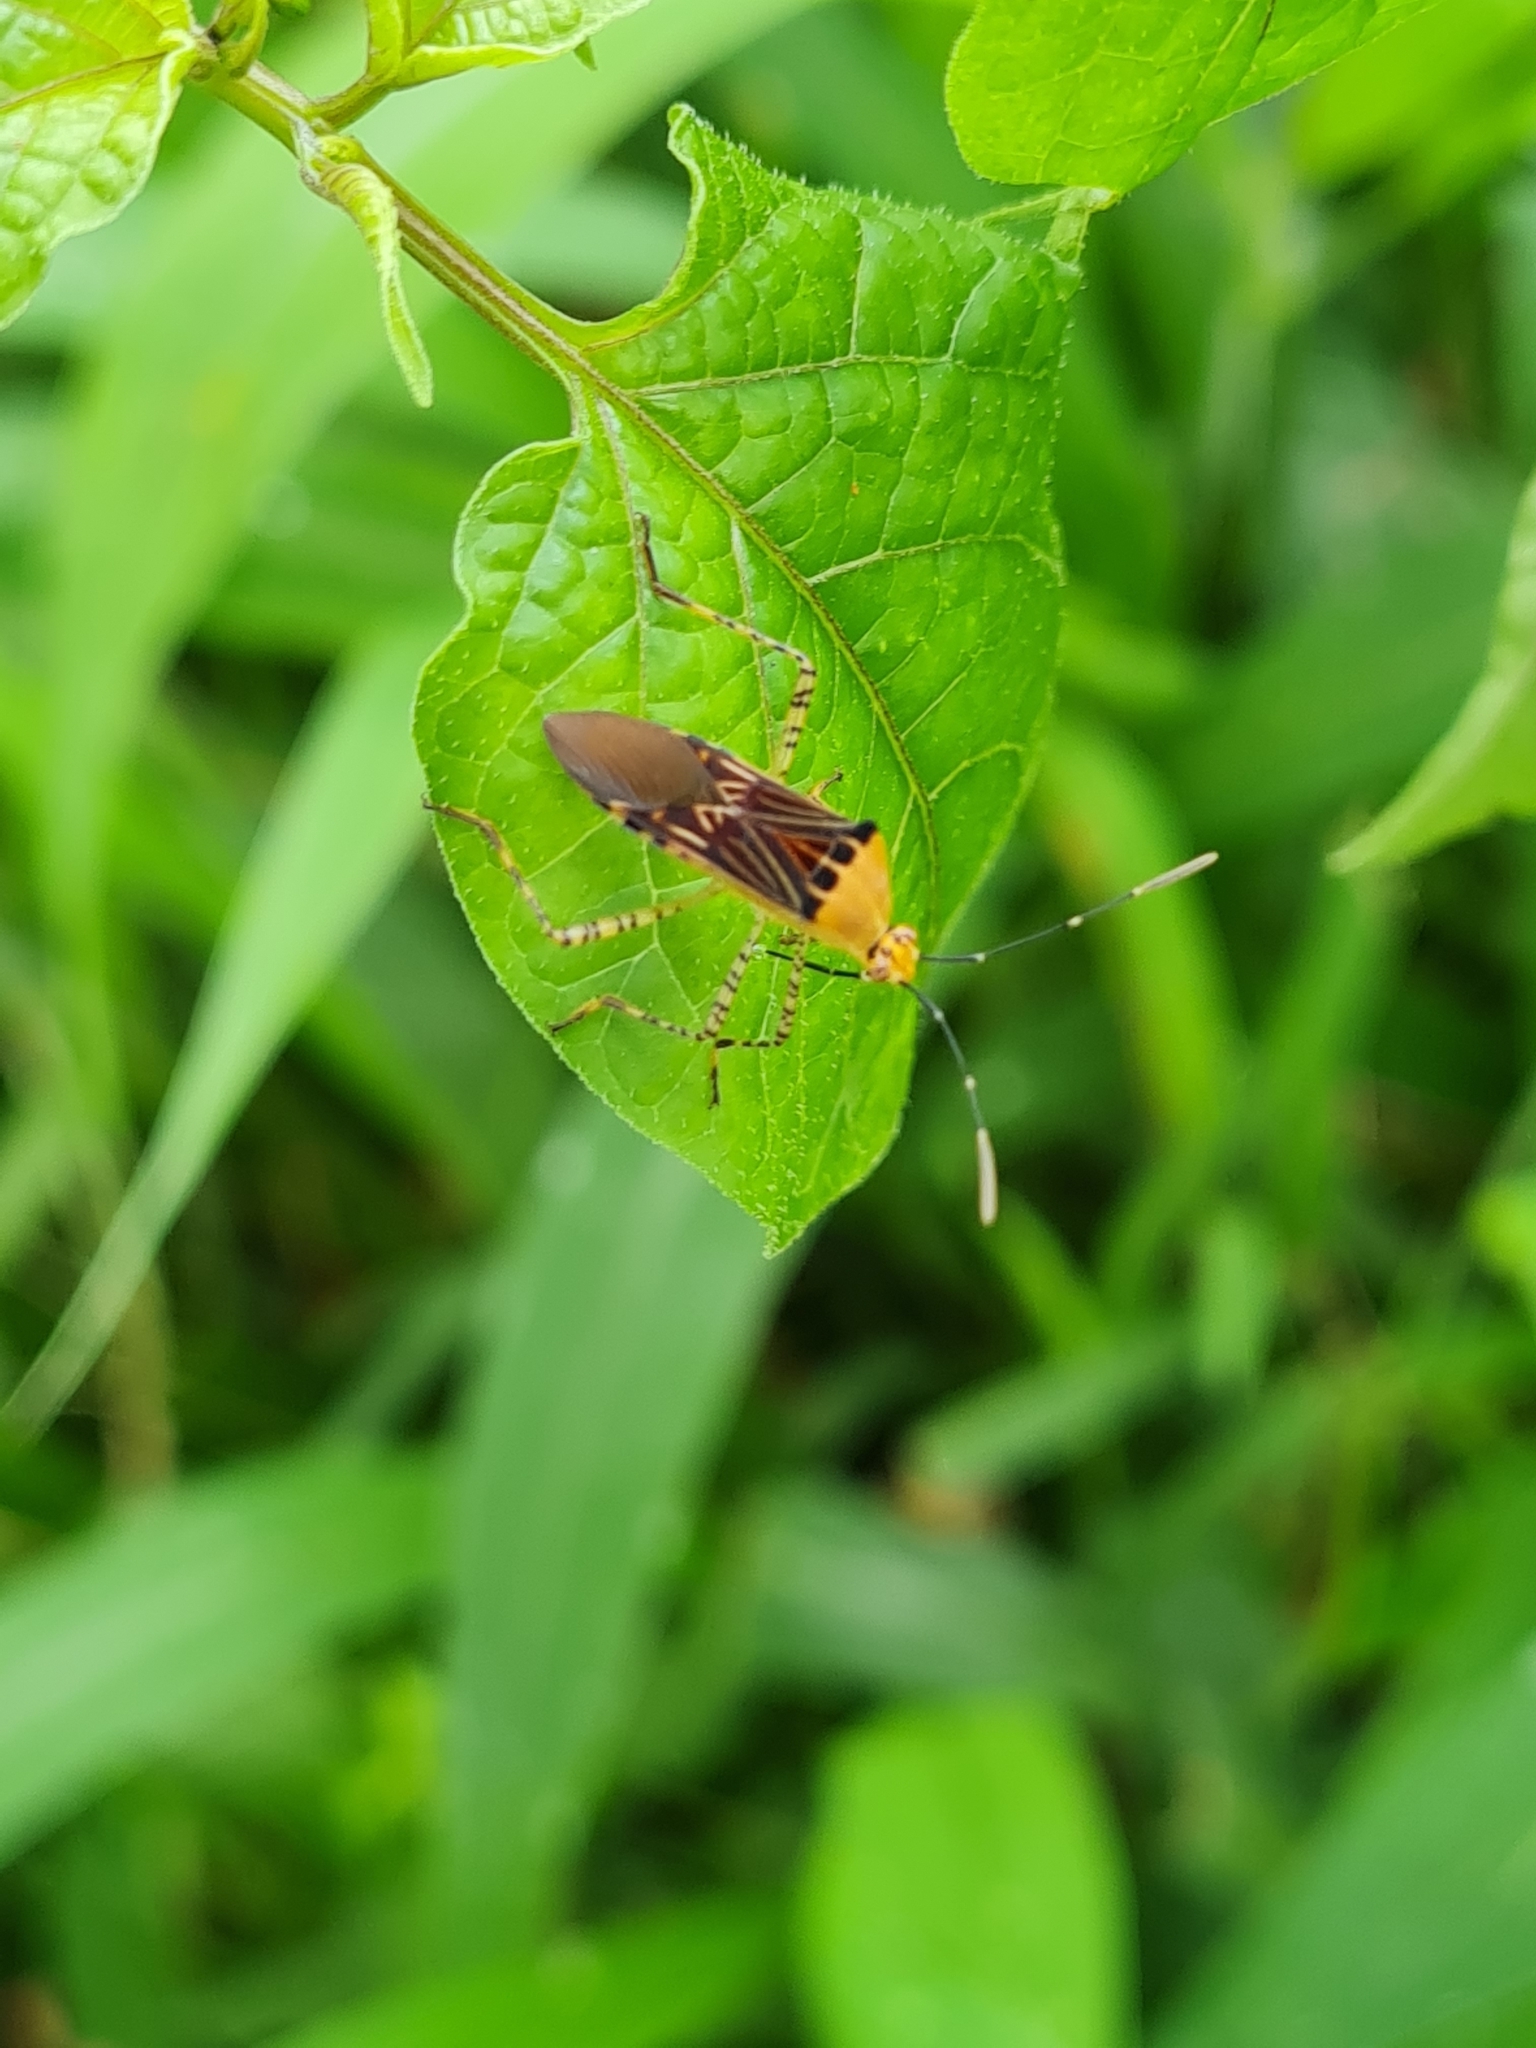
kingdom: Animalia
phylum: Arthropoda
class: Insecta
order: Hemiptera
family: Coreidae
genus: Hypselonotus
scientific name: Hypselonotus lineatus
